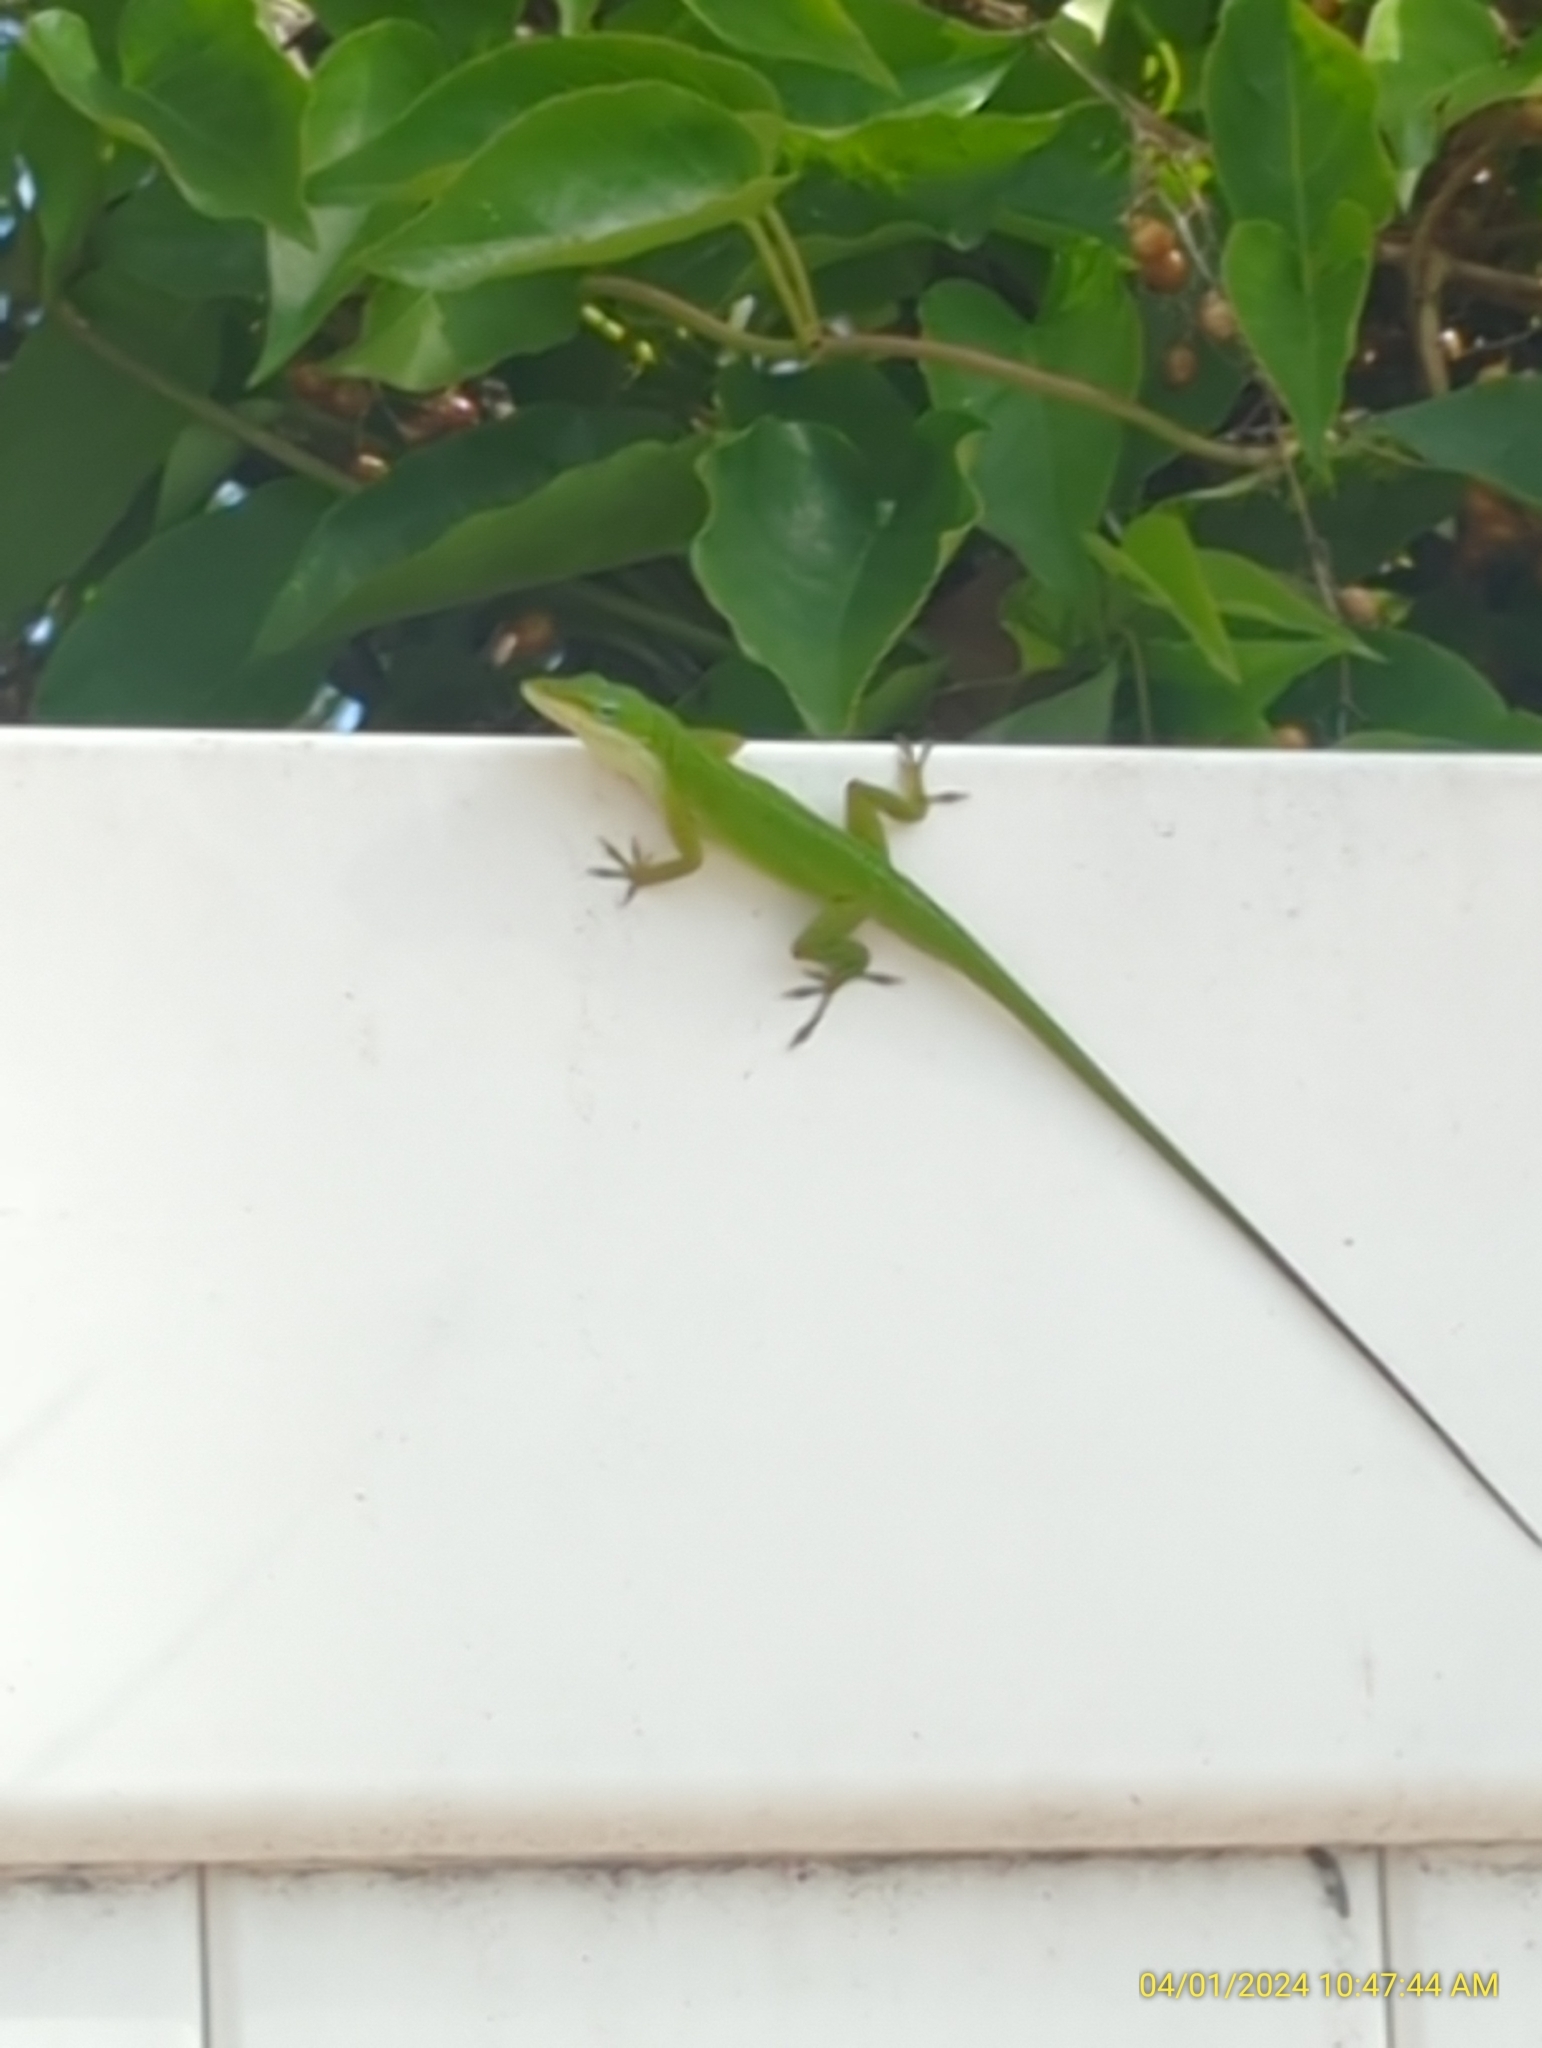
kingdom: Animalia
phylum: Chordata
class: Squamata
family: Dactyloidae
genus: Anolis
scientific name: Anolis carolinensis
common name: Green anole
